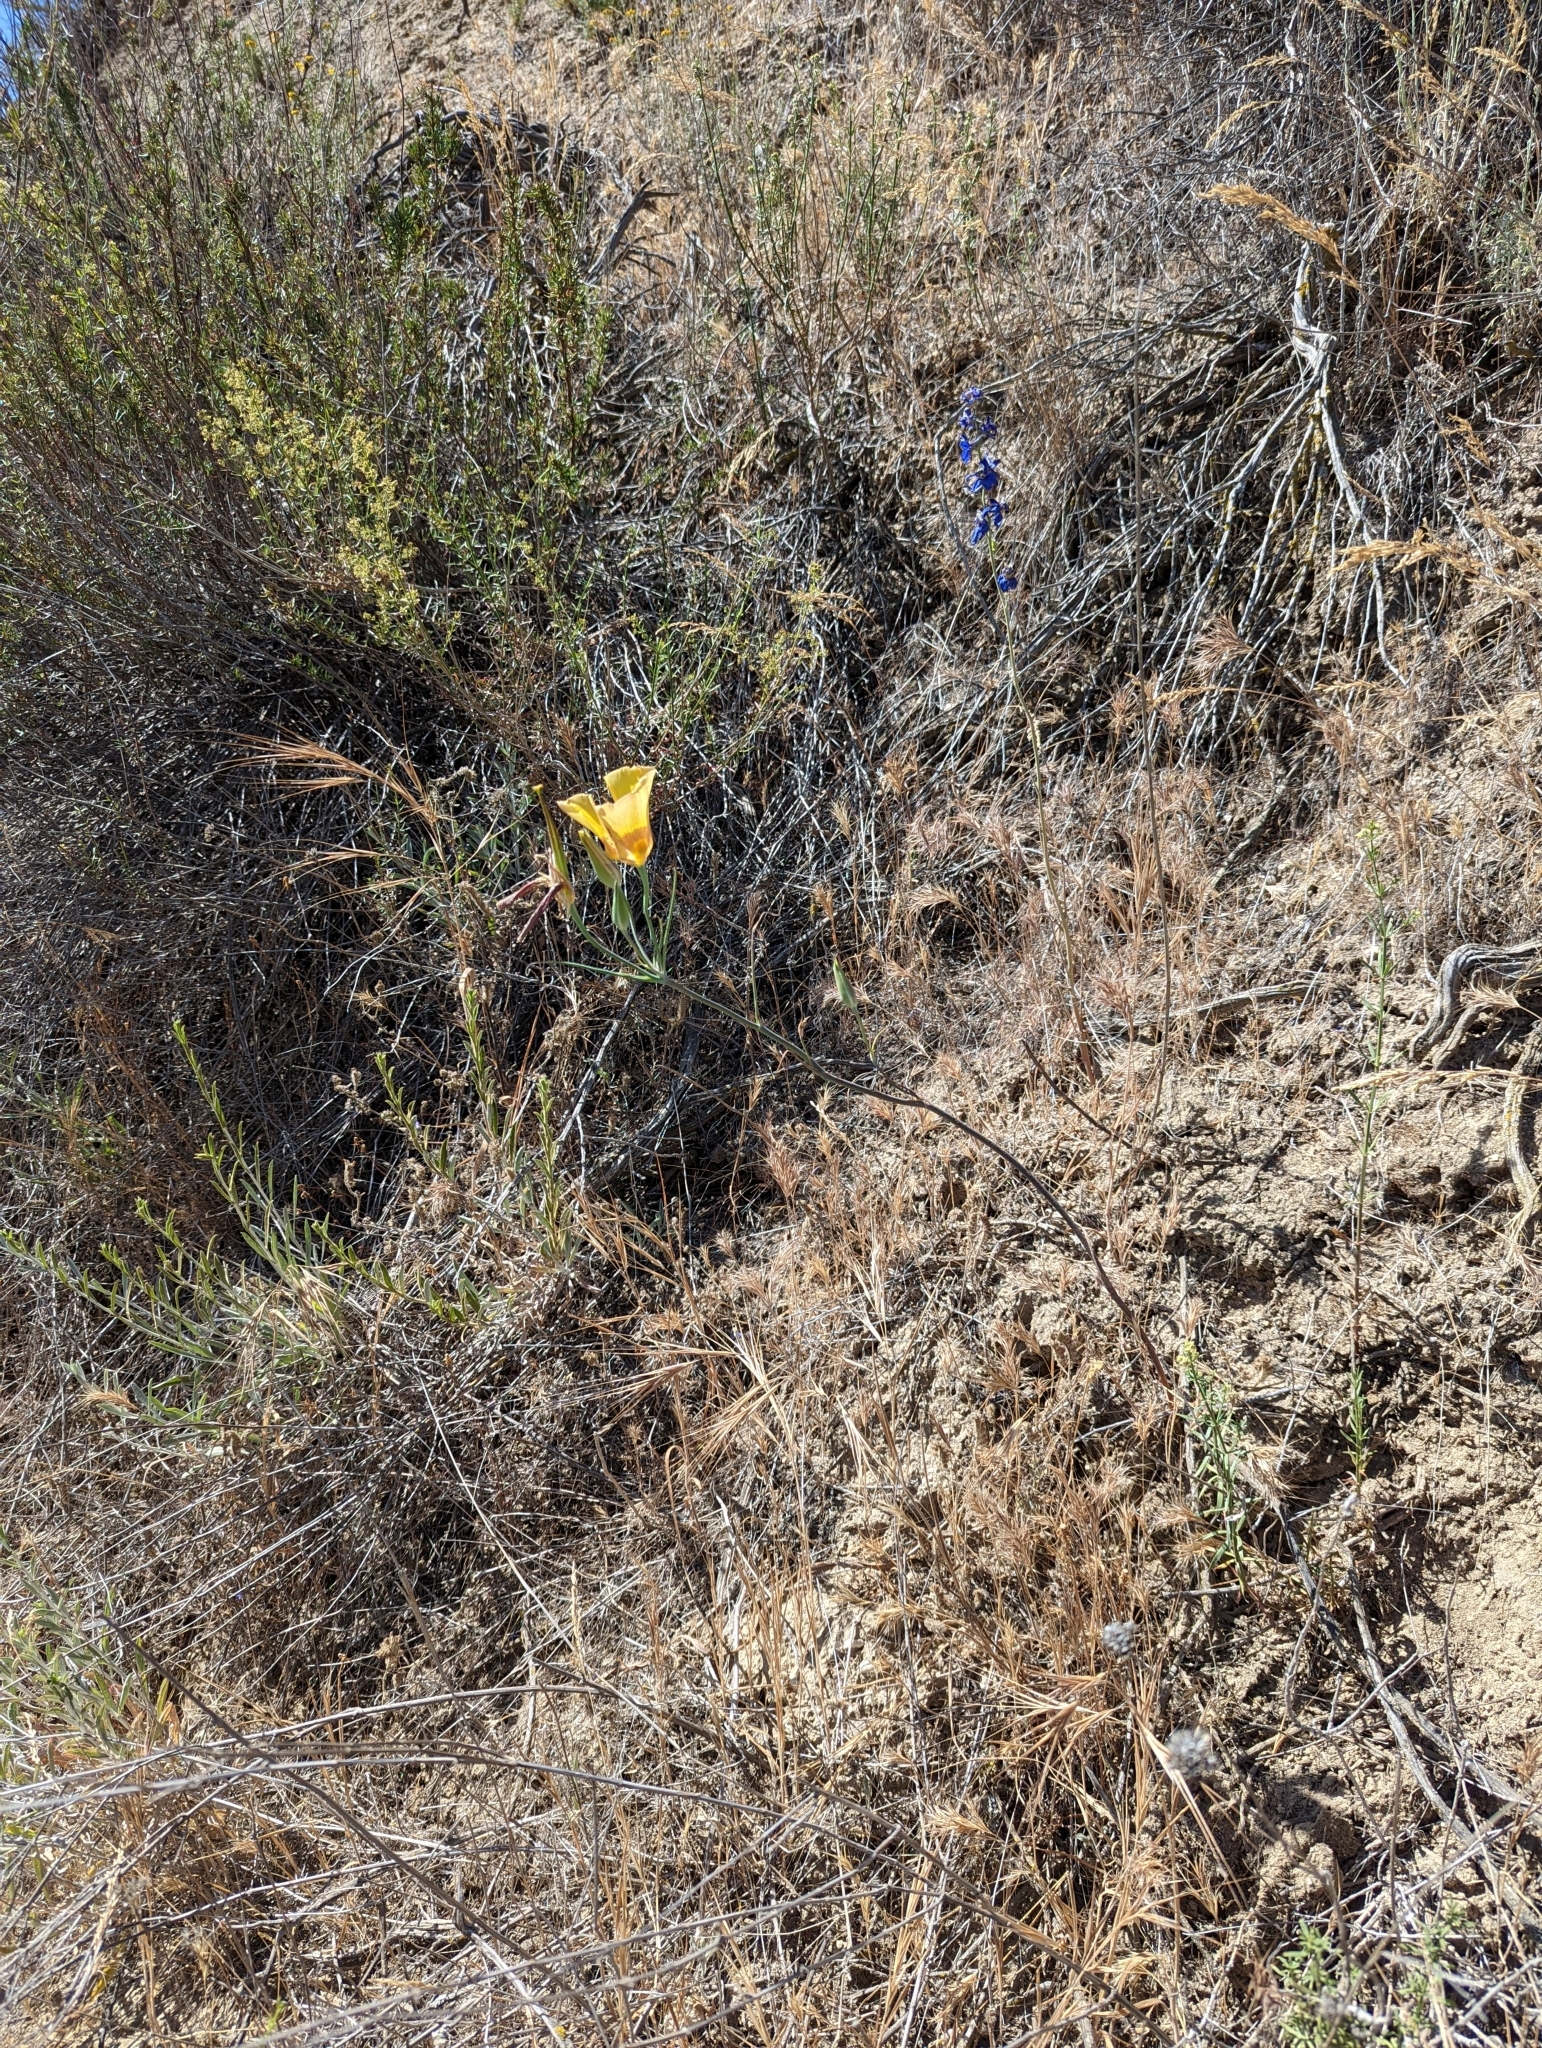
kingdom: Plantae
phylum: Tracheophyta
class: Liliopsida
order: Liliales
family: Liliaceae
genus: Calochortus
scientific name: Calochortus concolor
